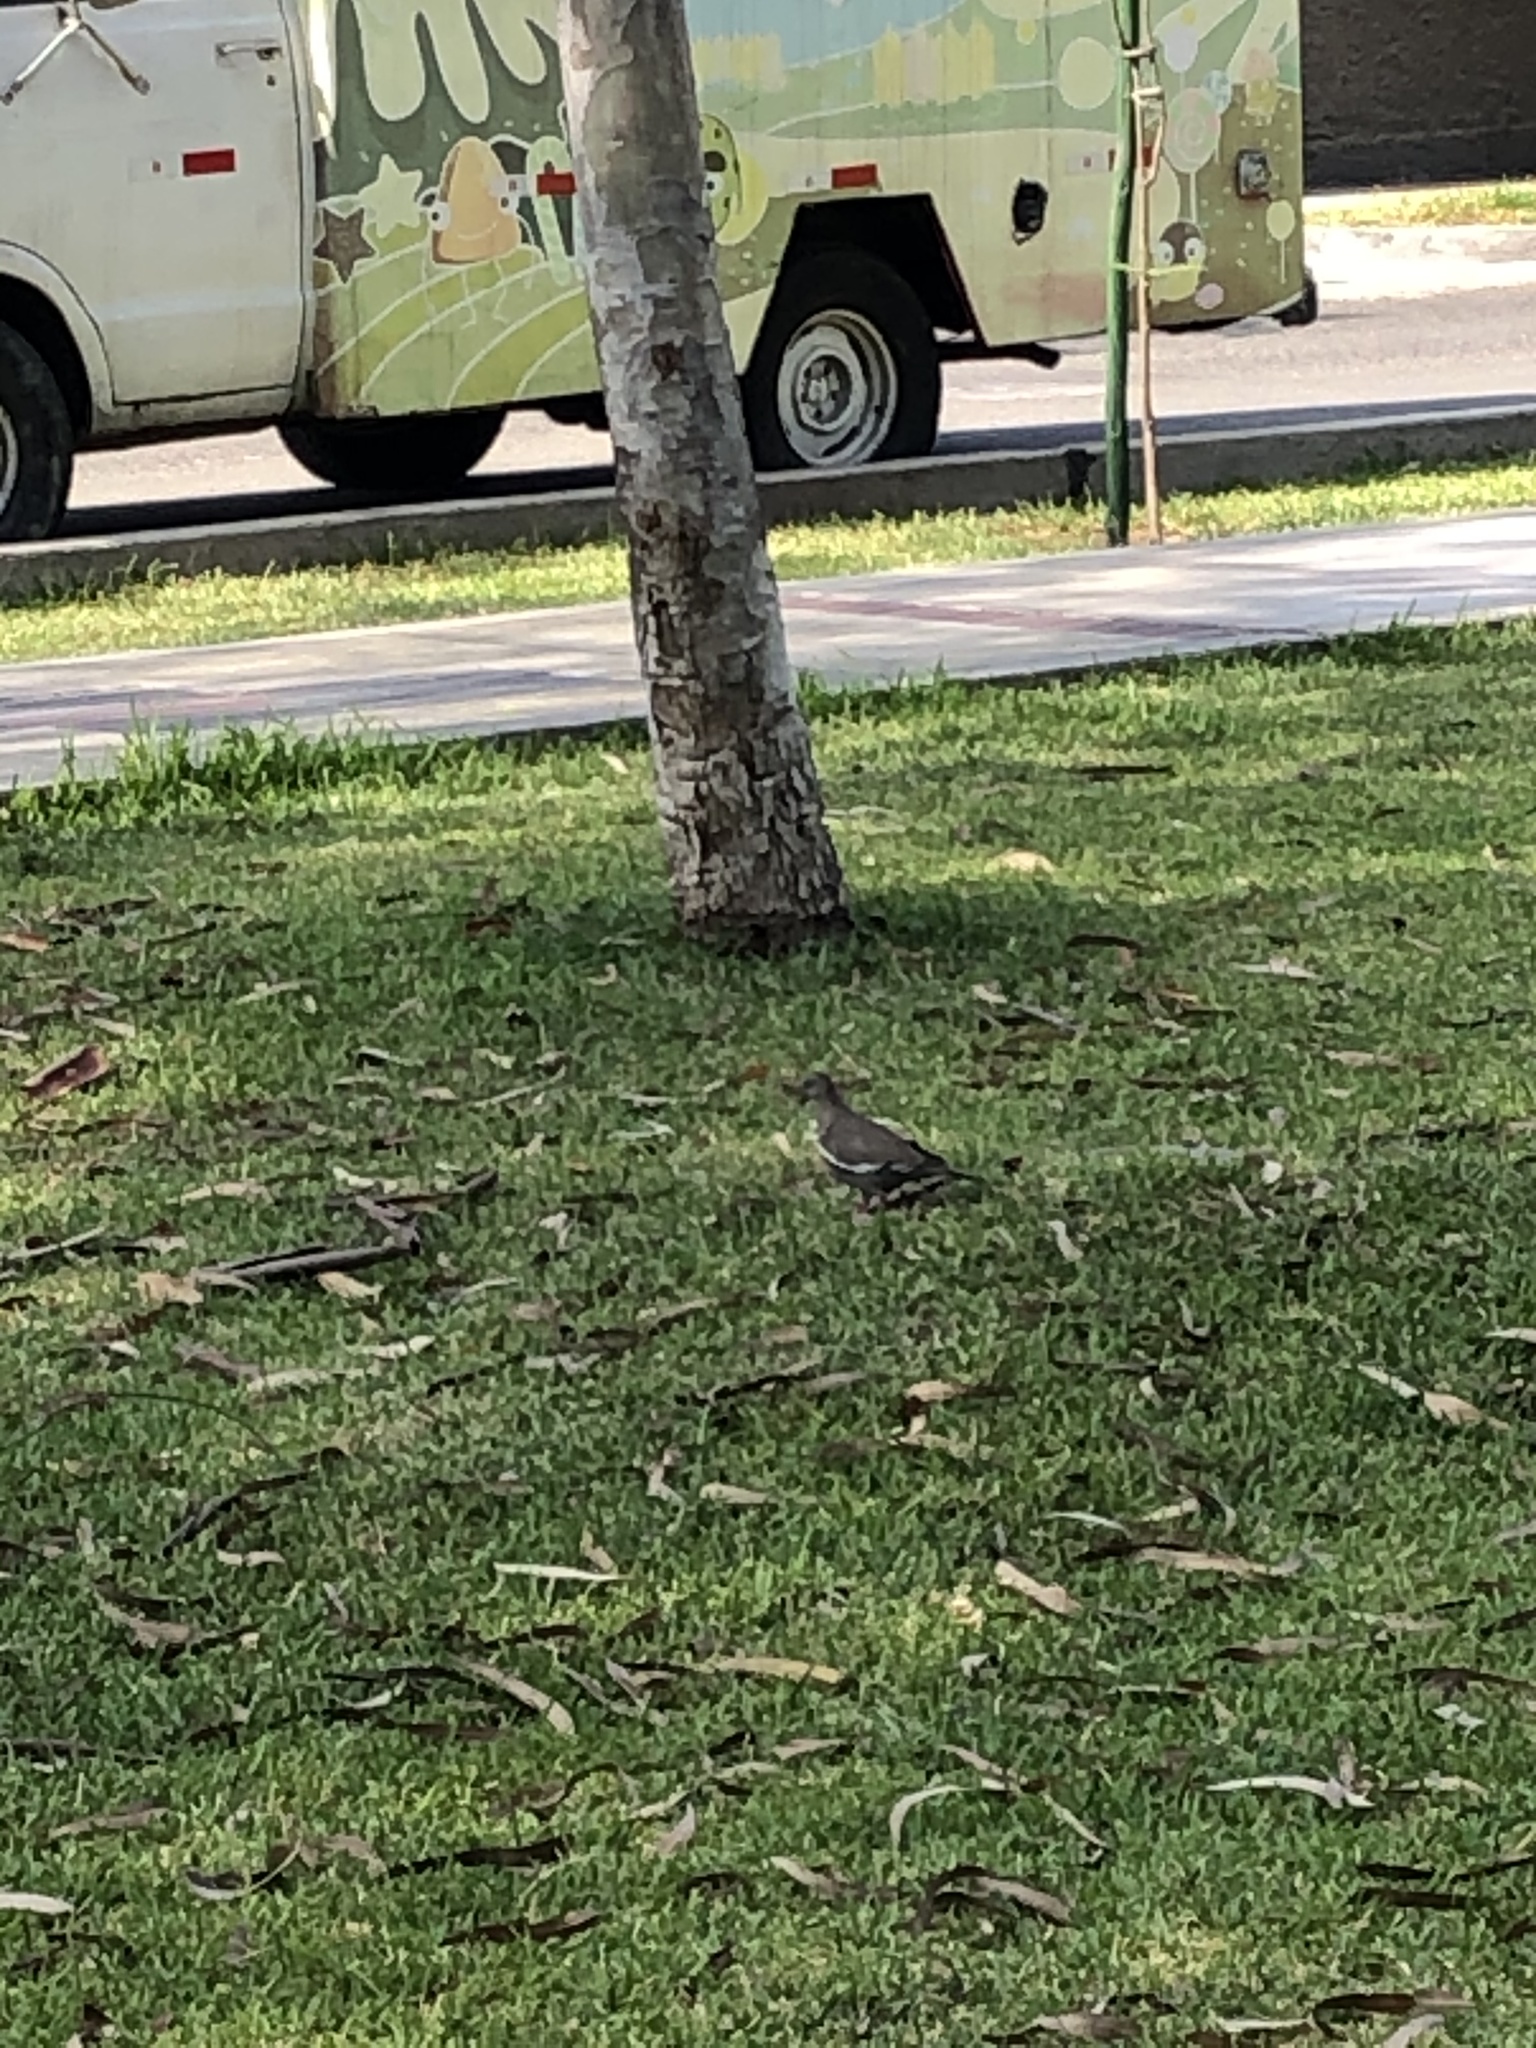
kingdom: Animalia
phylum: Chordata
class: Aves
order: Columbiformes
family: Columbidae
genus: Zenaida
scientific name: Zenaida meloda
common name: West peruvian dove
